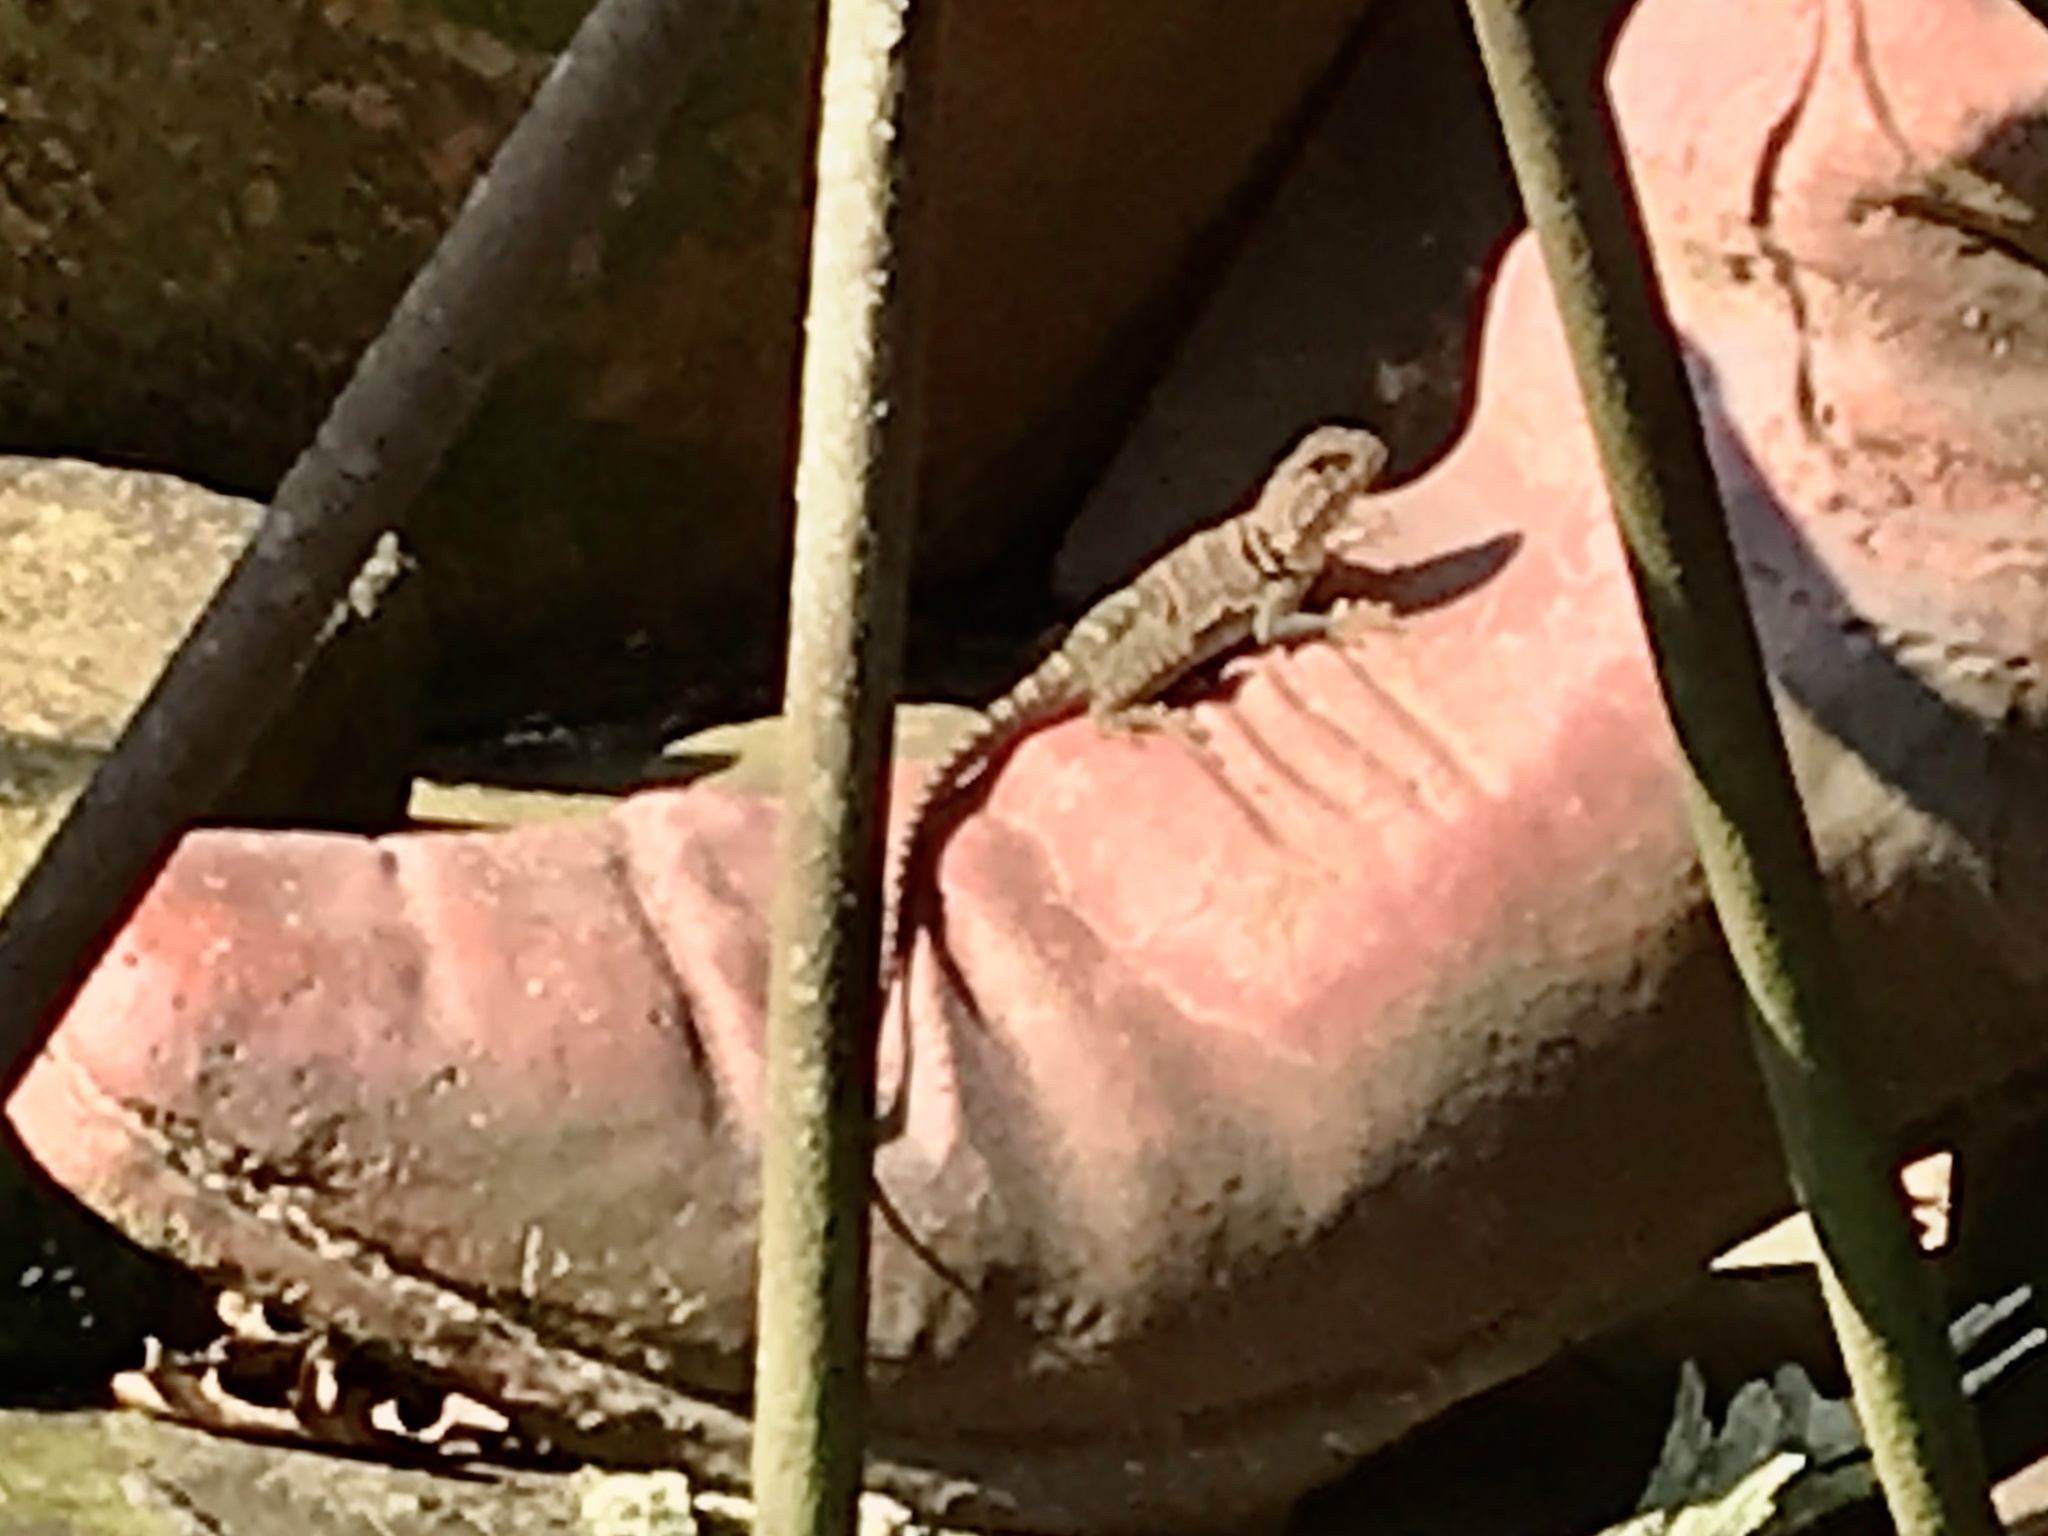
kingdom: Animalia
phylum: Chordata
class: Squamata
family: Crotaphytidae
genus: Crotaphytus
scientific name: Crotaphytus collaris
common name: Collared lizard
